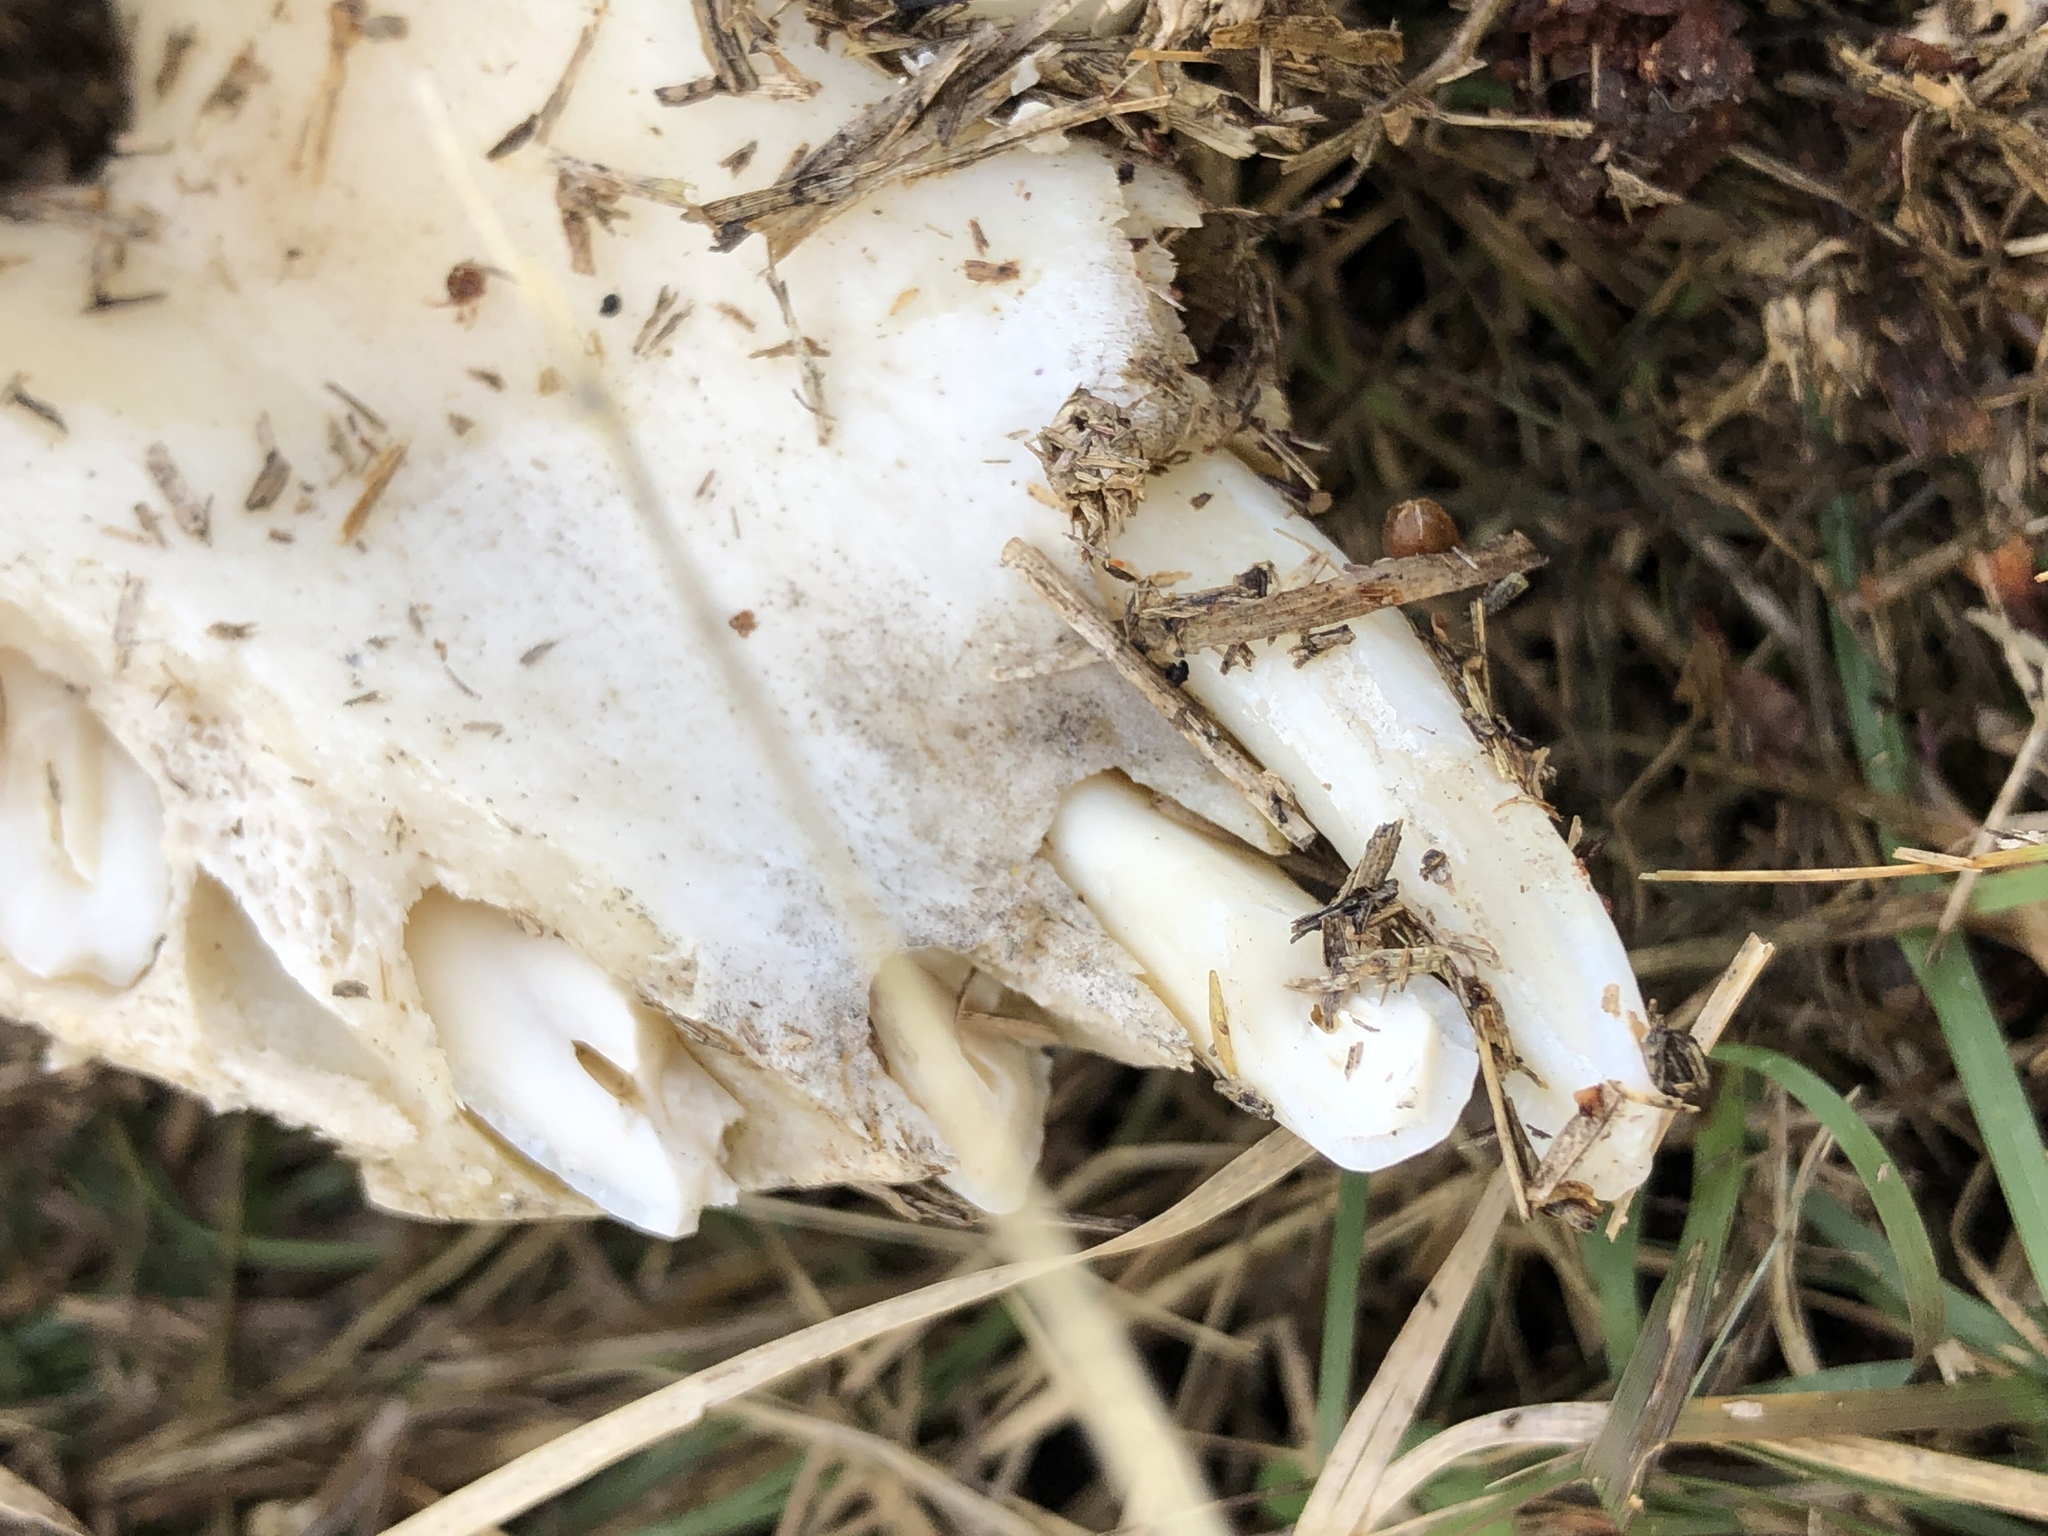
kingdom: Animalia
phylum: Chordata
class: Mammalia
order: Artiodactyla
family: Suidae
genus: Sus
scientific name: Sus scrofa
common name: Wild boar
